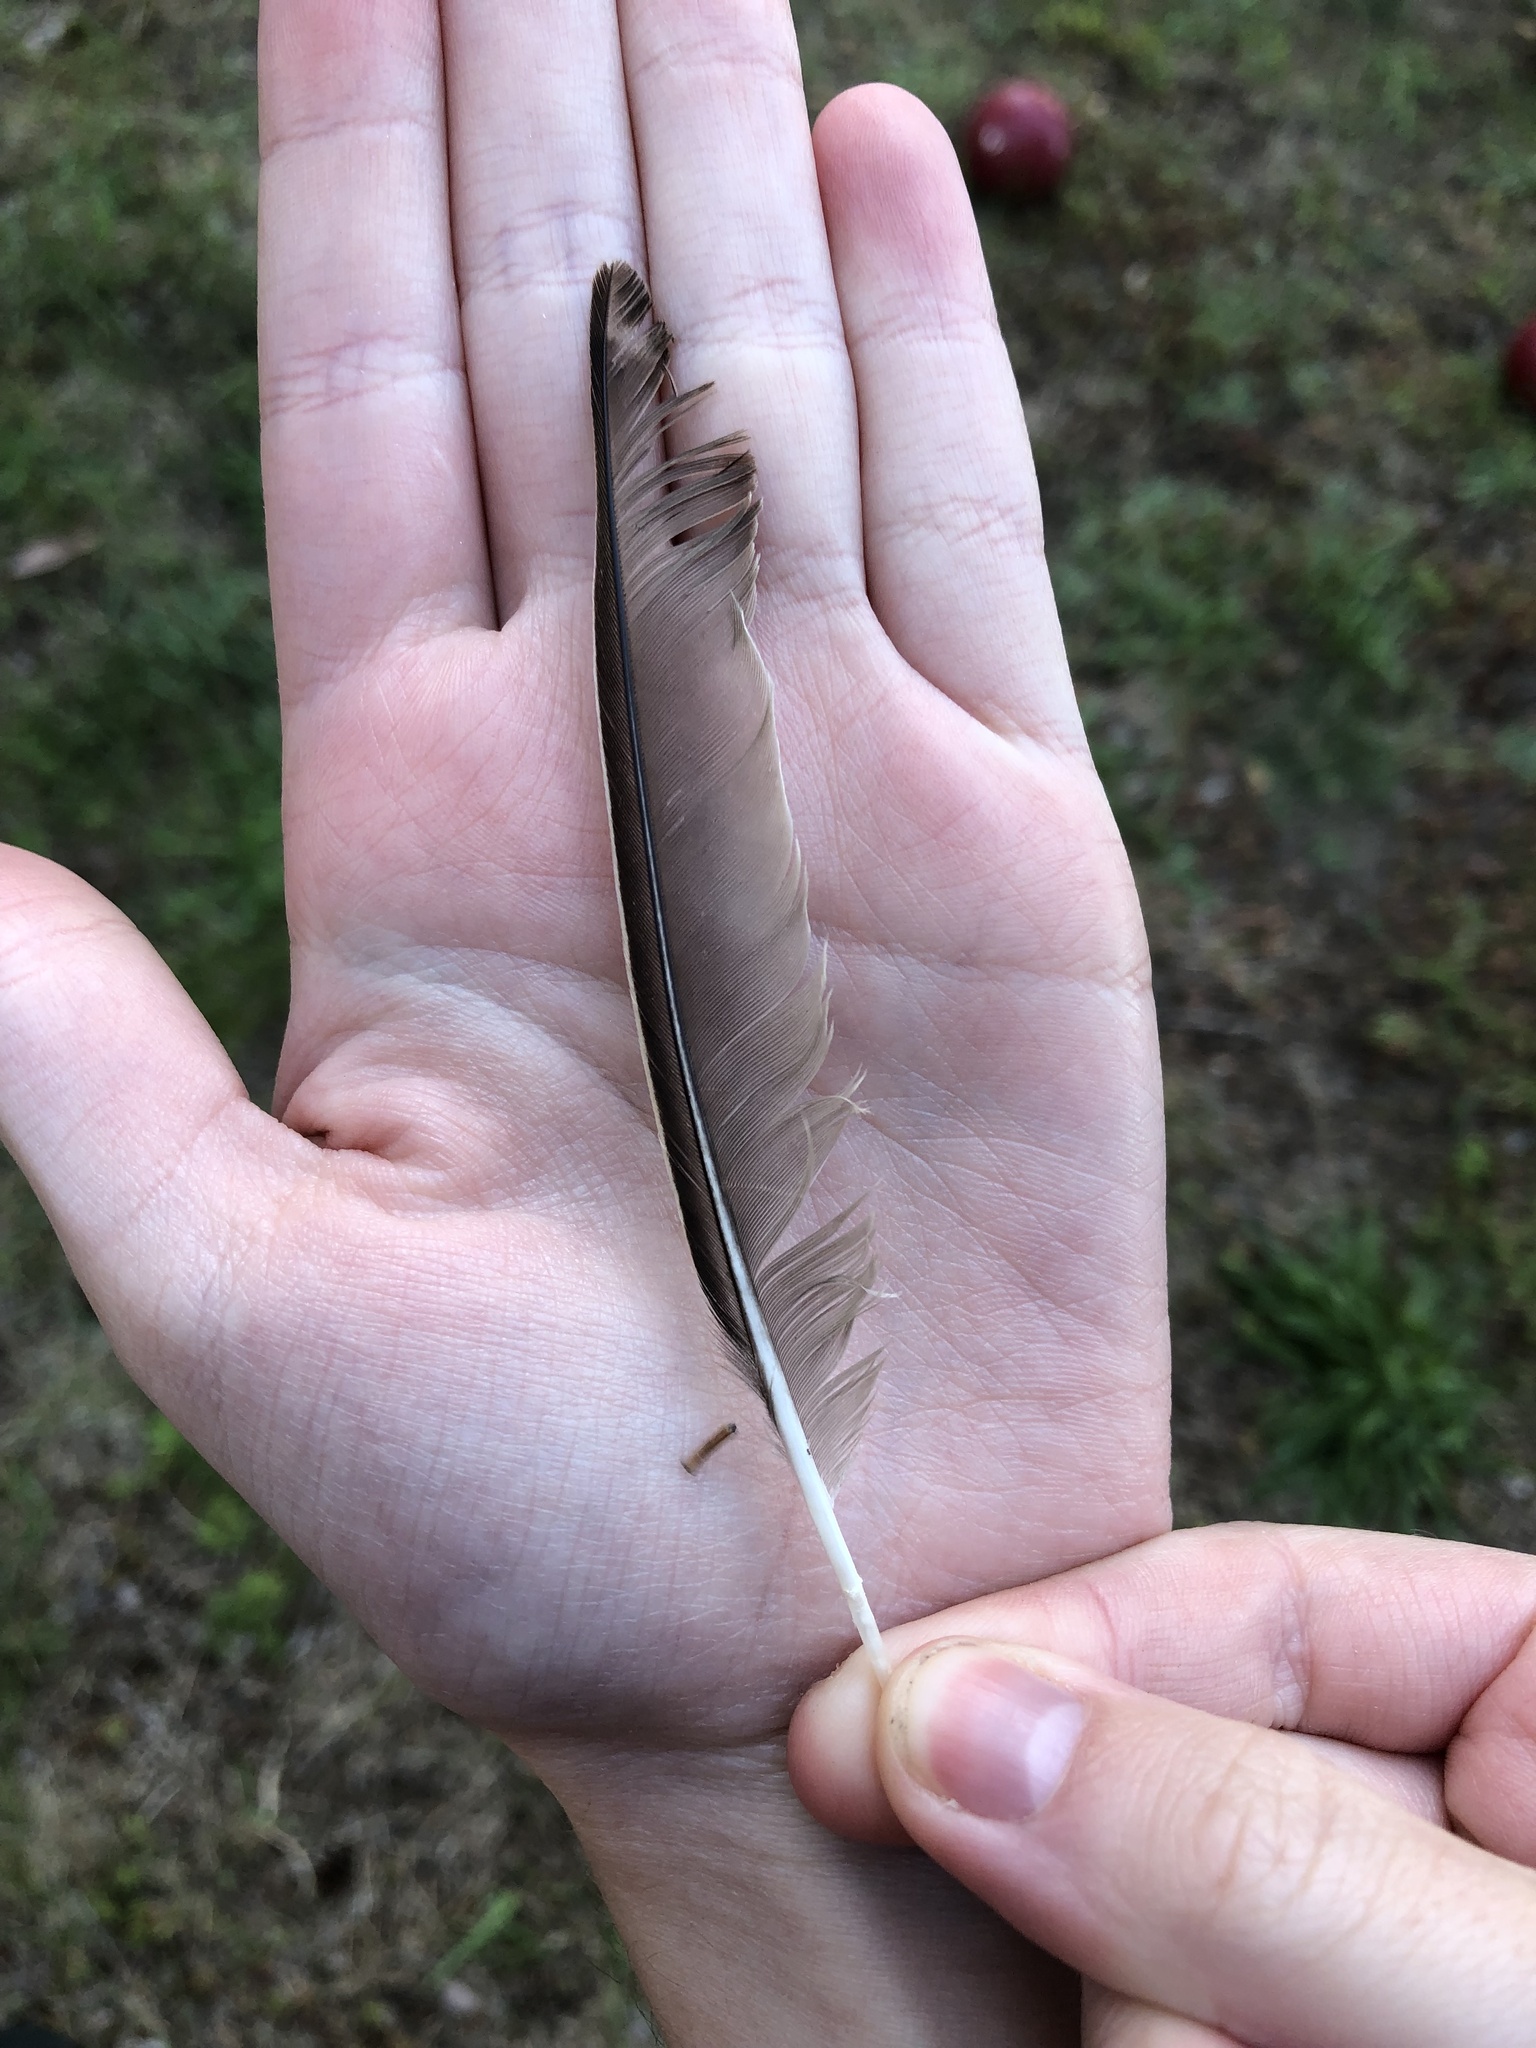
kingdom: Animalia
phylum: Chordata
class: Aves
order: Passeriformes
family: Sturnidae
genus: Sturnus
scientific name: Sturnus vulgaris
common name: Common starling
